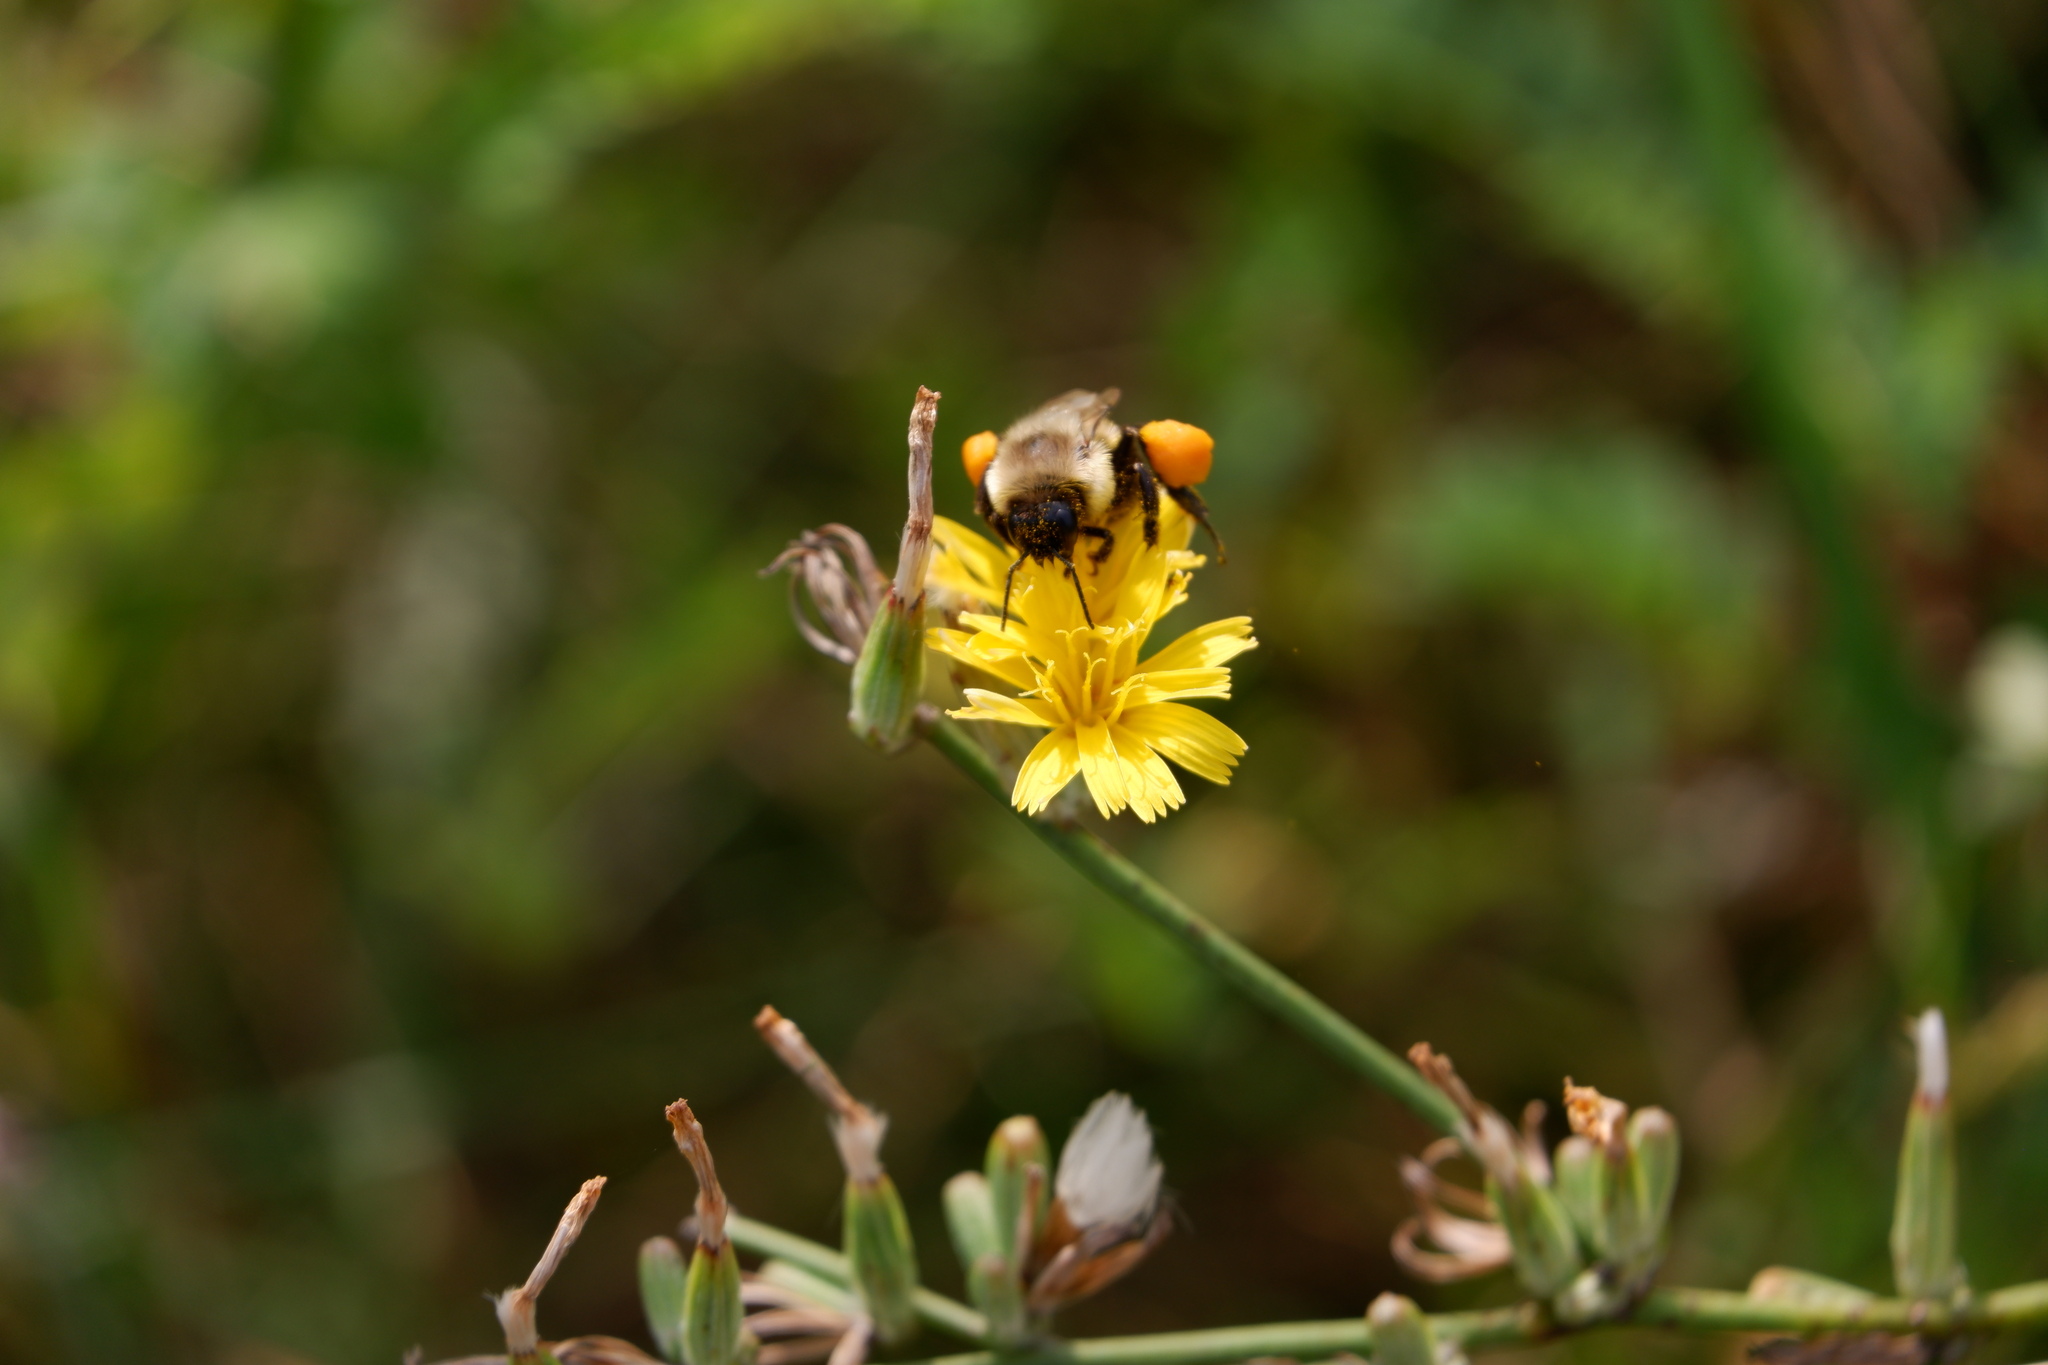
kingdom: Animalia
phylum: Arthropoda
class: Insecta
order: Hymenoptera
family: Apidae
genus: Bombus
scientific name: Bombus impatiens
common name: Common eastern bumble bee
